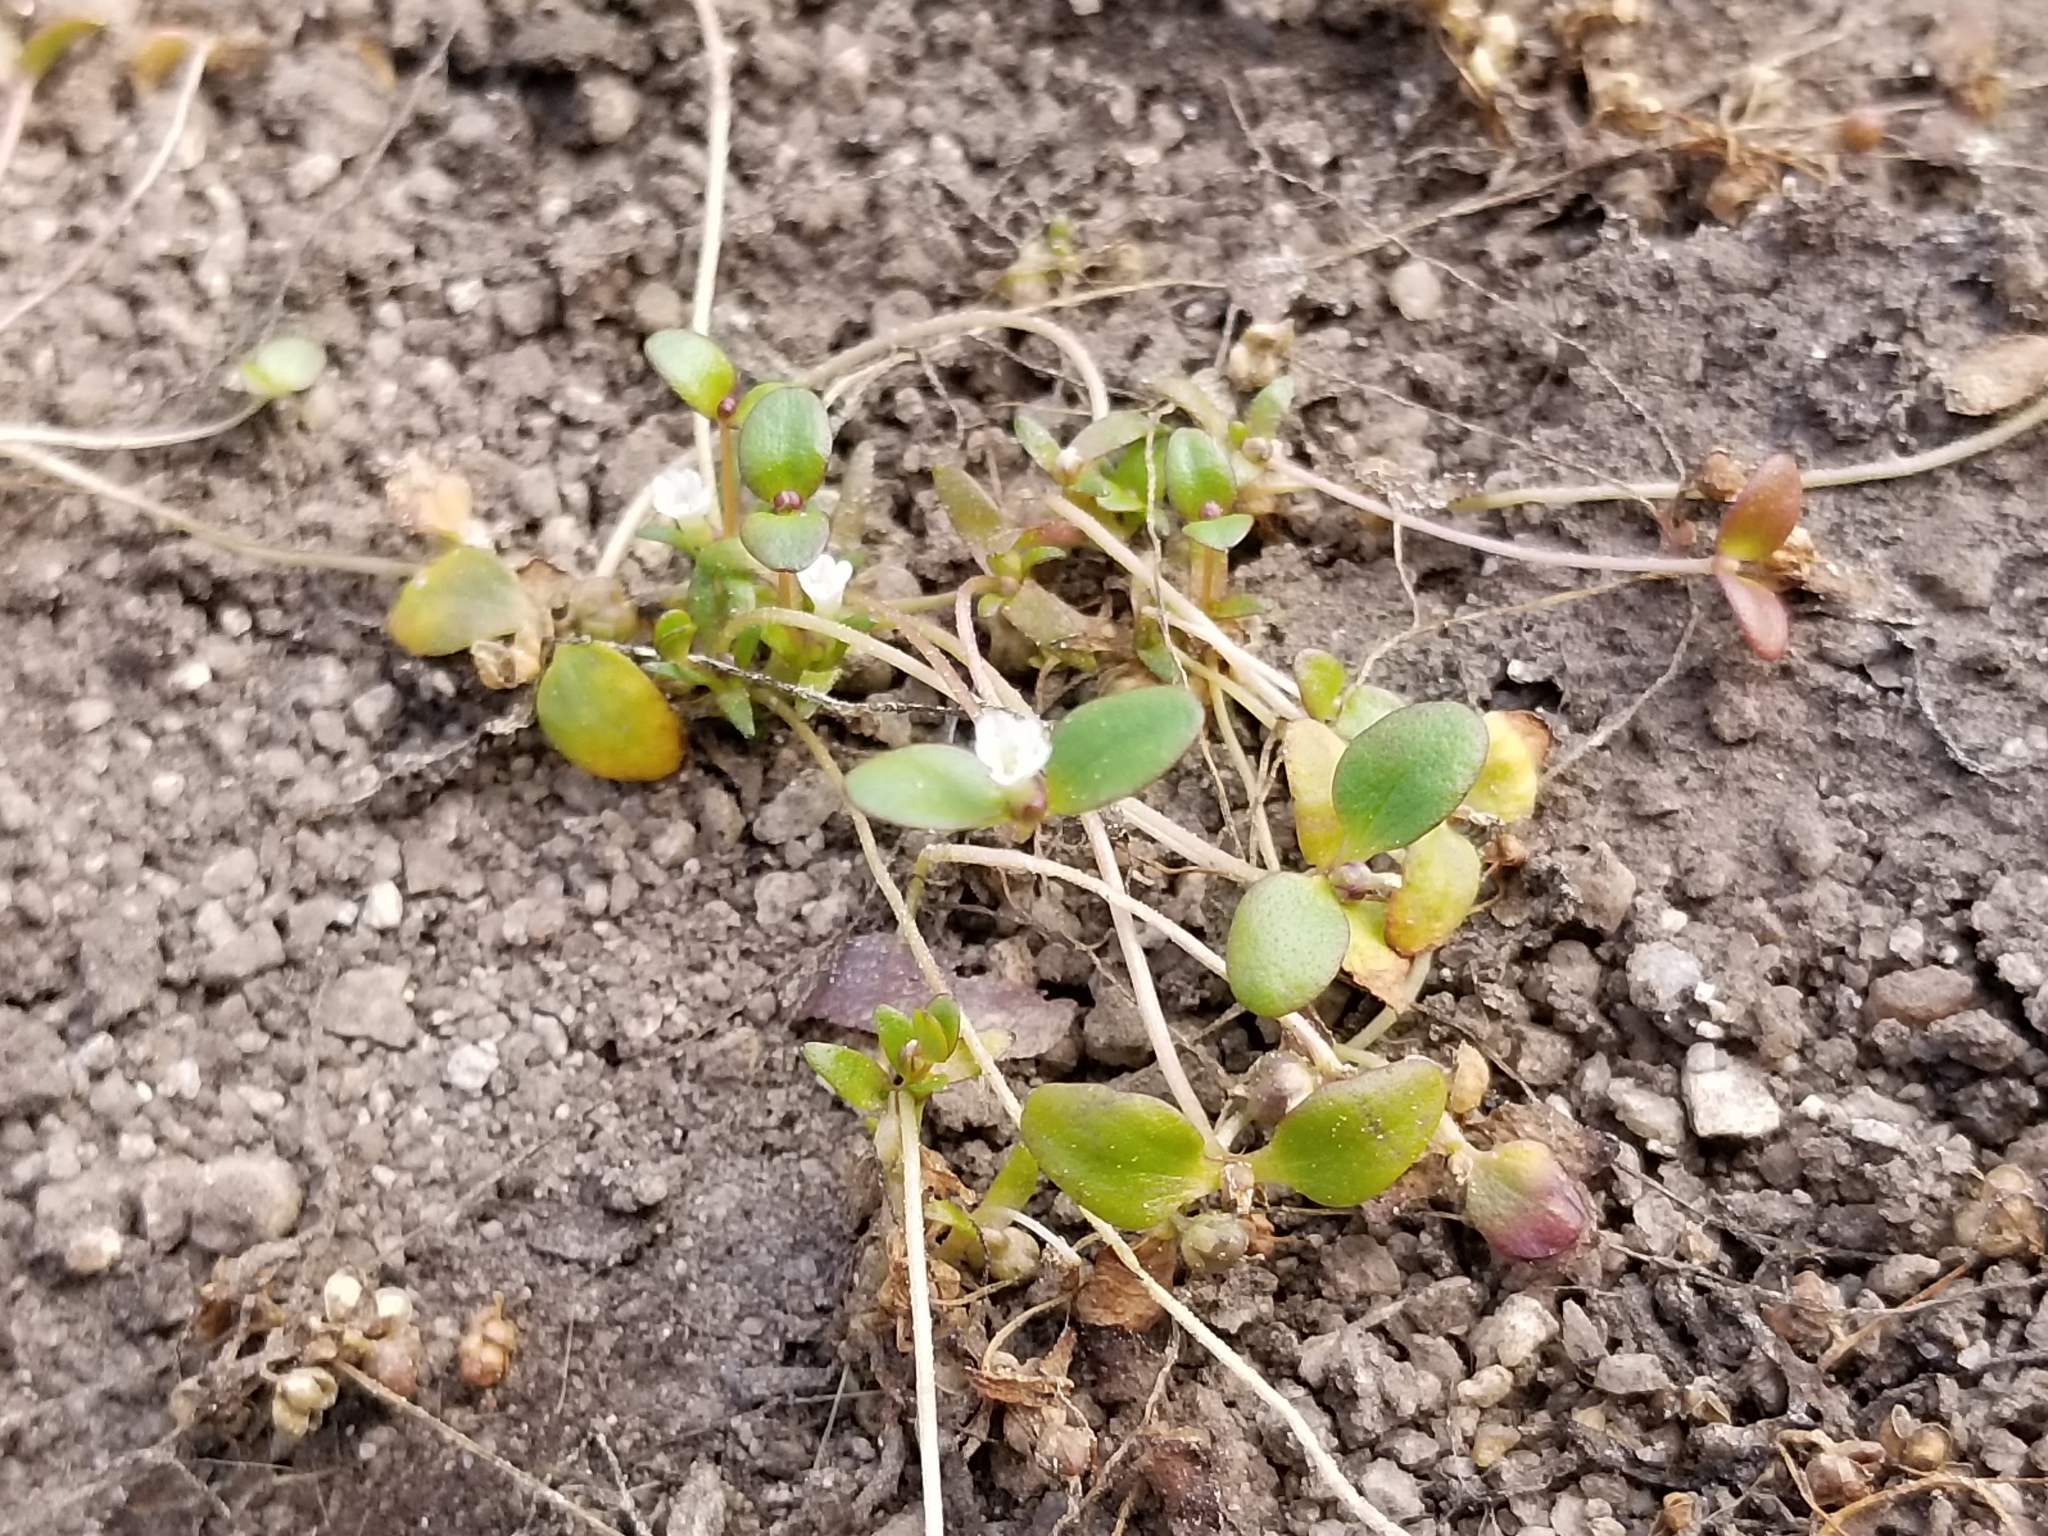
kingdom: Plantae
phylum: Tracheophyta
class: Magnoliopsida
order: Lamiales
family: Plantaginaceae
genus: Gratiola
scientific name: Gratiola amphiantha
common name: Little amphianthus
